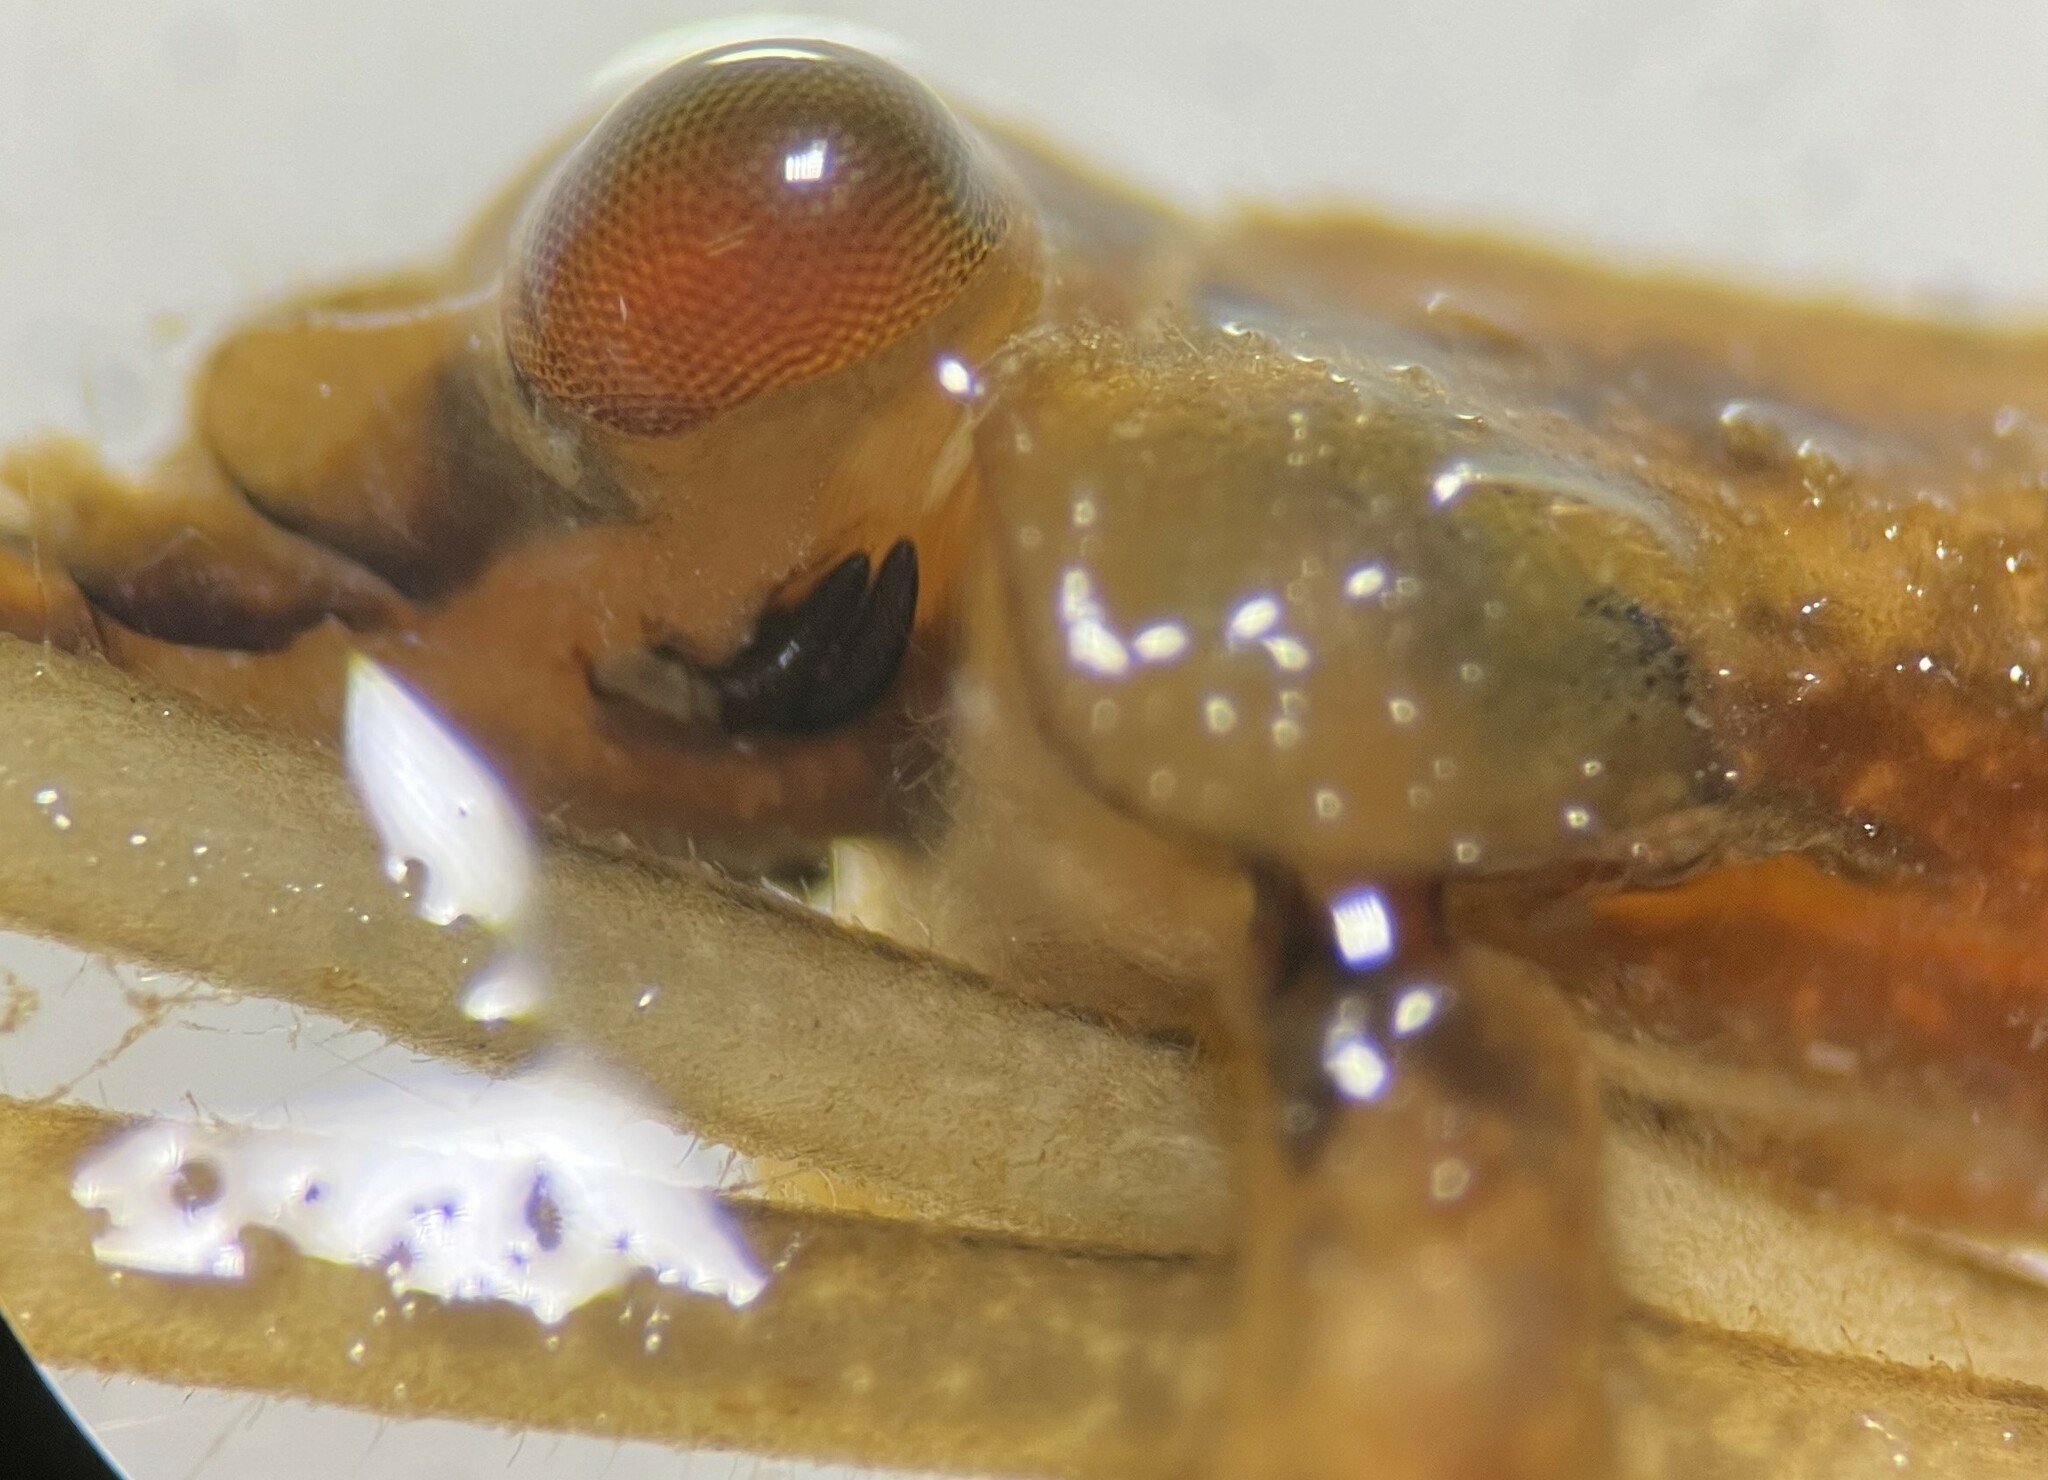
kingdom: Animalia
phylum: Arthropoda
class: Insecta
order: Hemiptera
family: Nepidae
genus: Ranatra
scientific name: Ranatra australis
